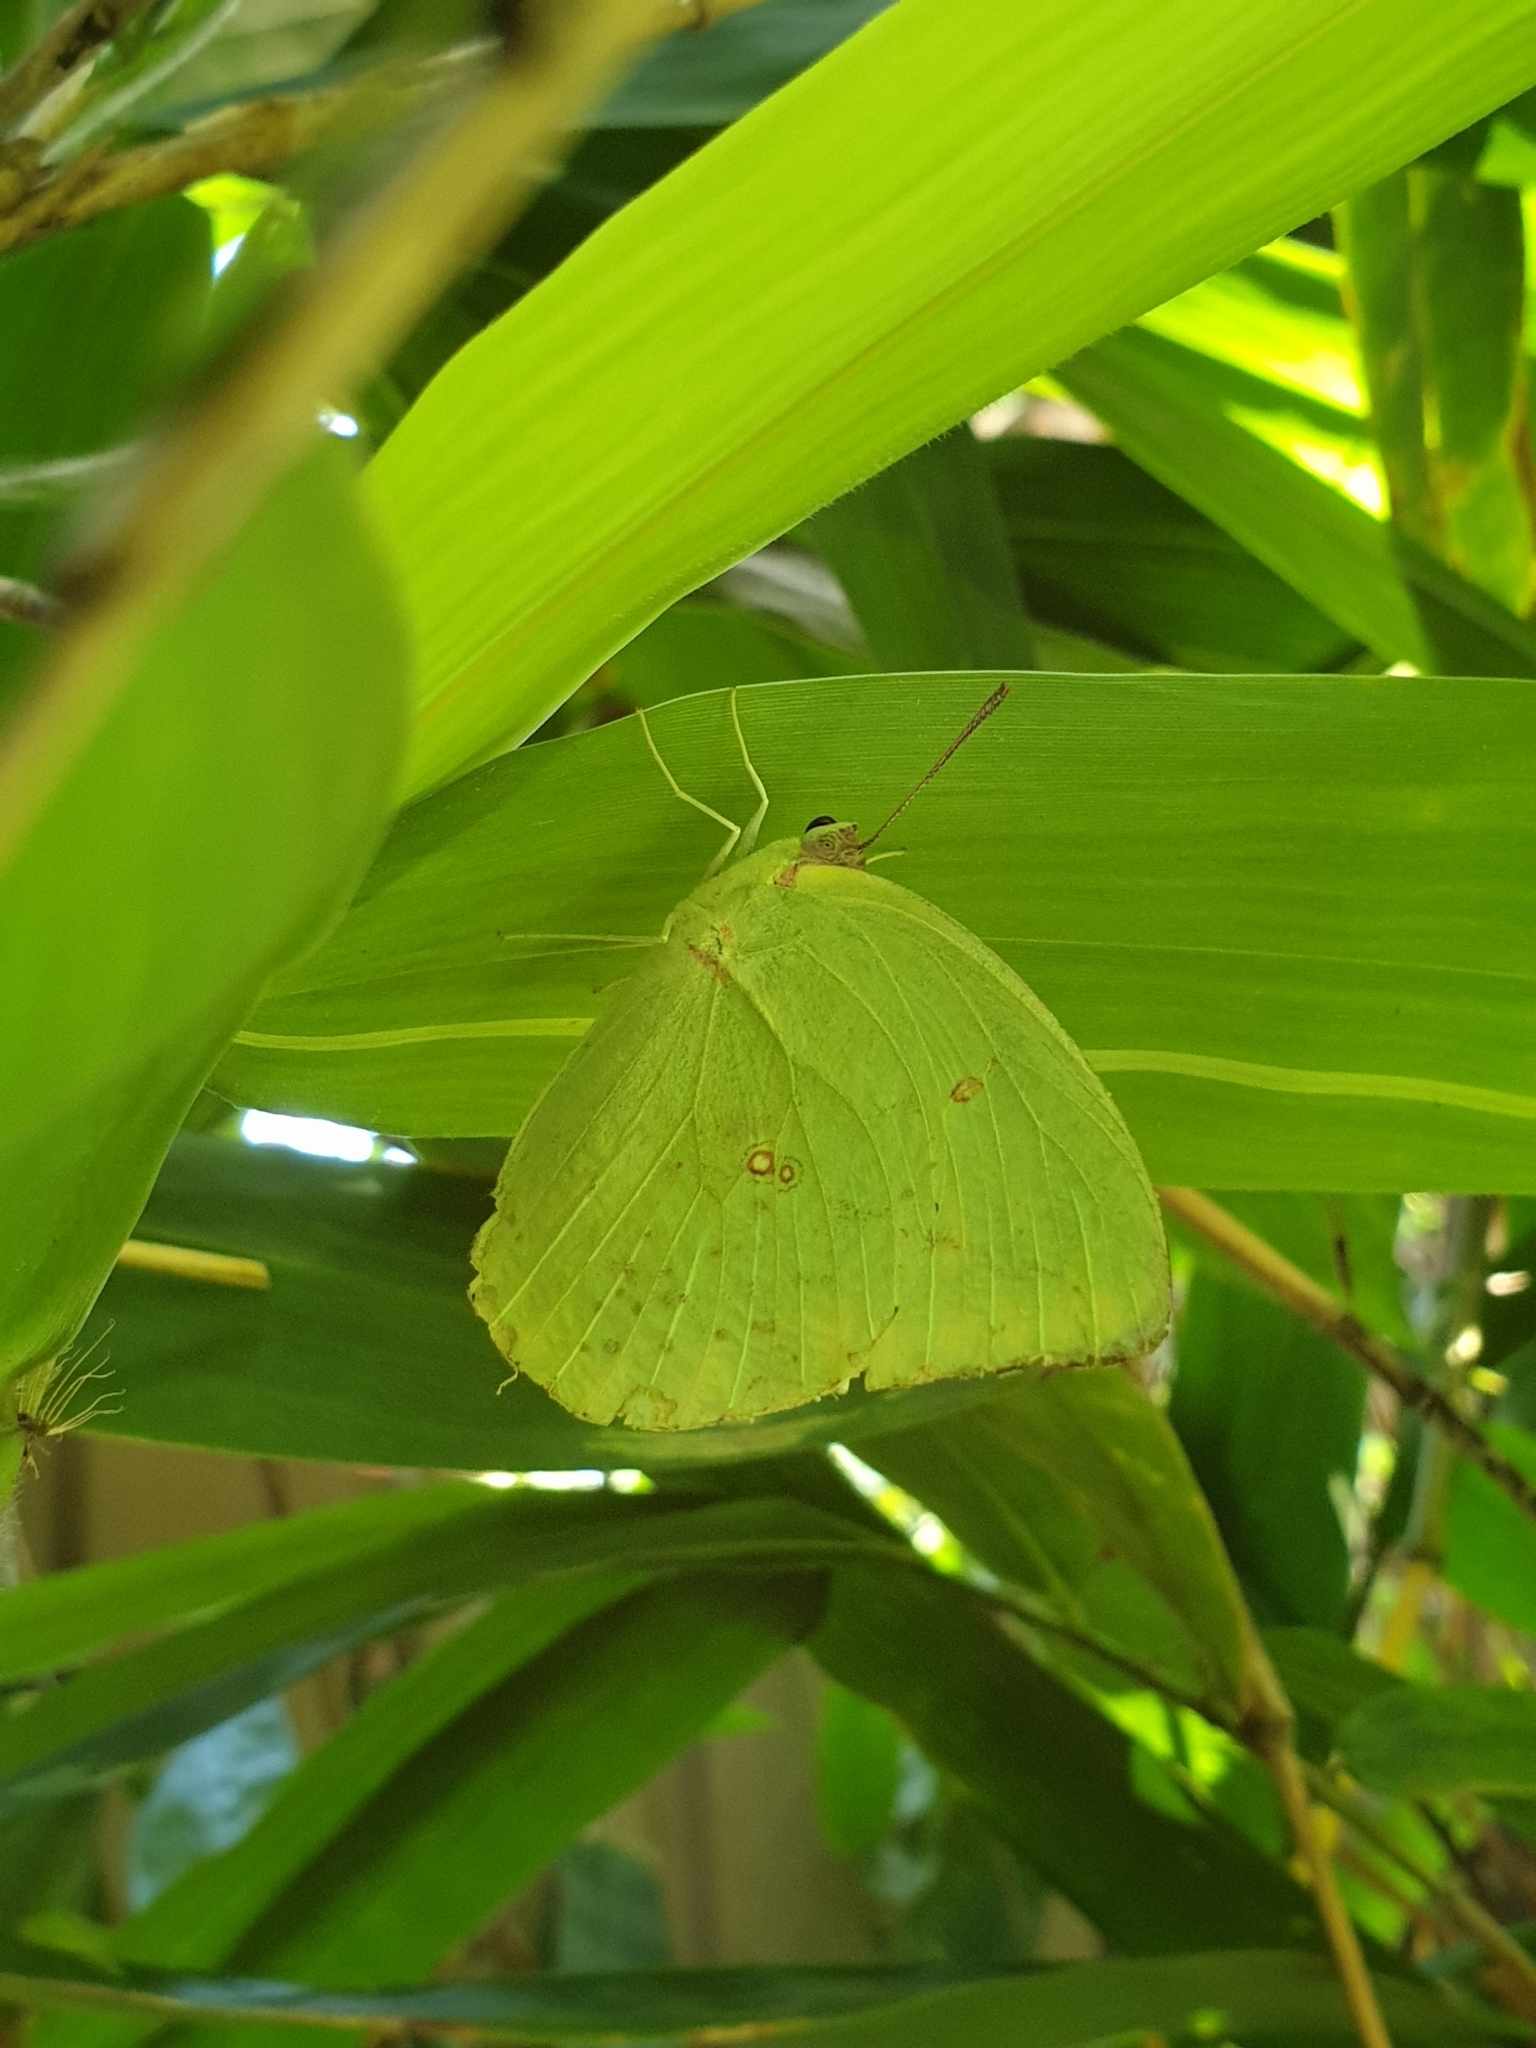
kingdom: Animalia
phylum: Arthropoda
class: Insecta
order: Lepidoptera
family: Pieridae
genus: Catopsilia
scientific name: Catopsilia pomona
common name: Common emigrant
